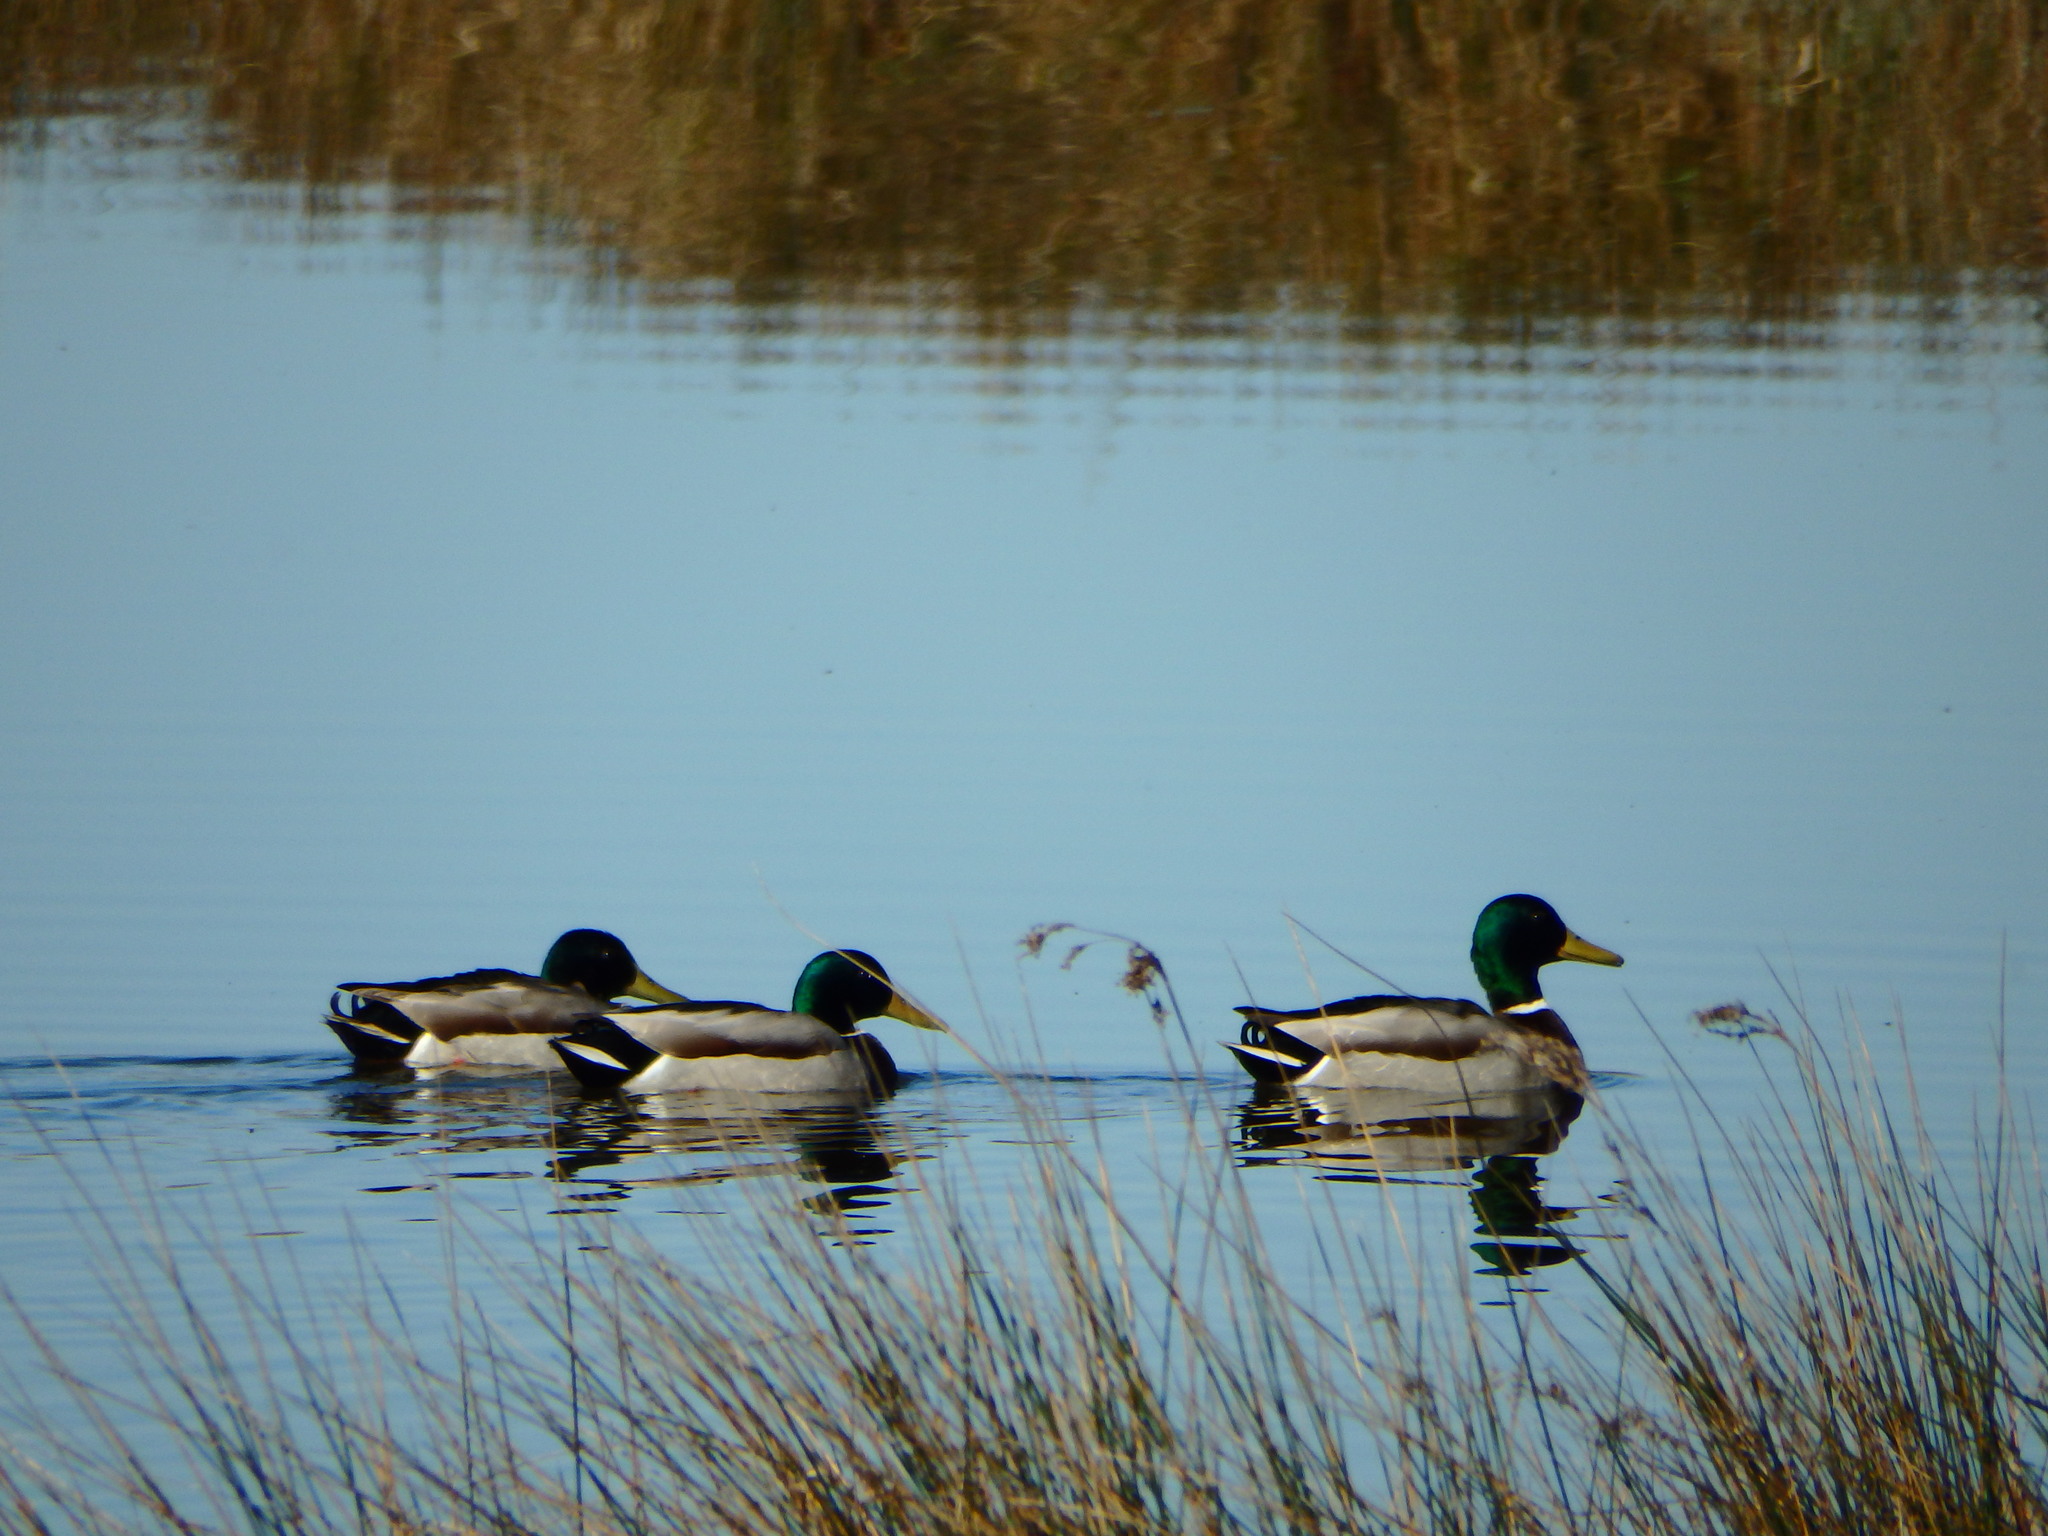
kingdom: Animalia
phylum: Chordata
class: Aves
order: Anseriformes
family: Anatidae
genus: Anas
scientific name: Anas platyrhynchos
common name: Mallard
